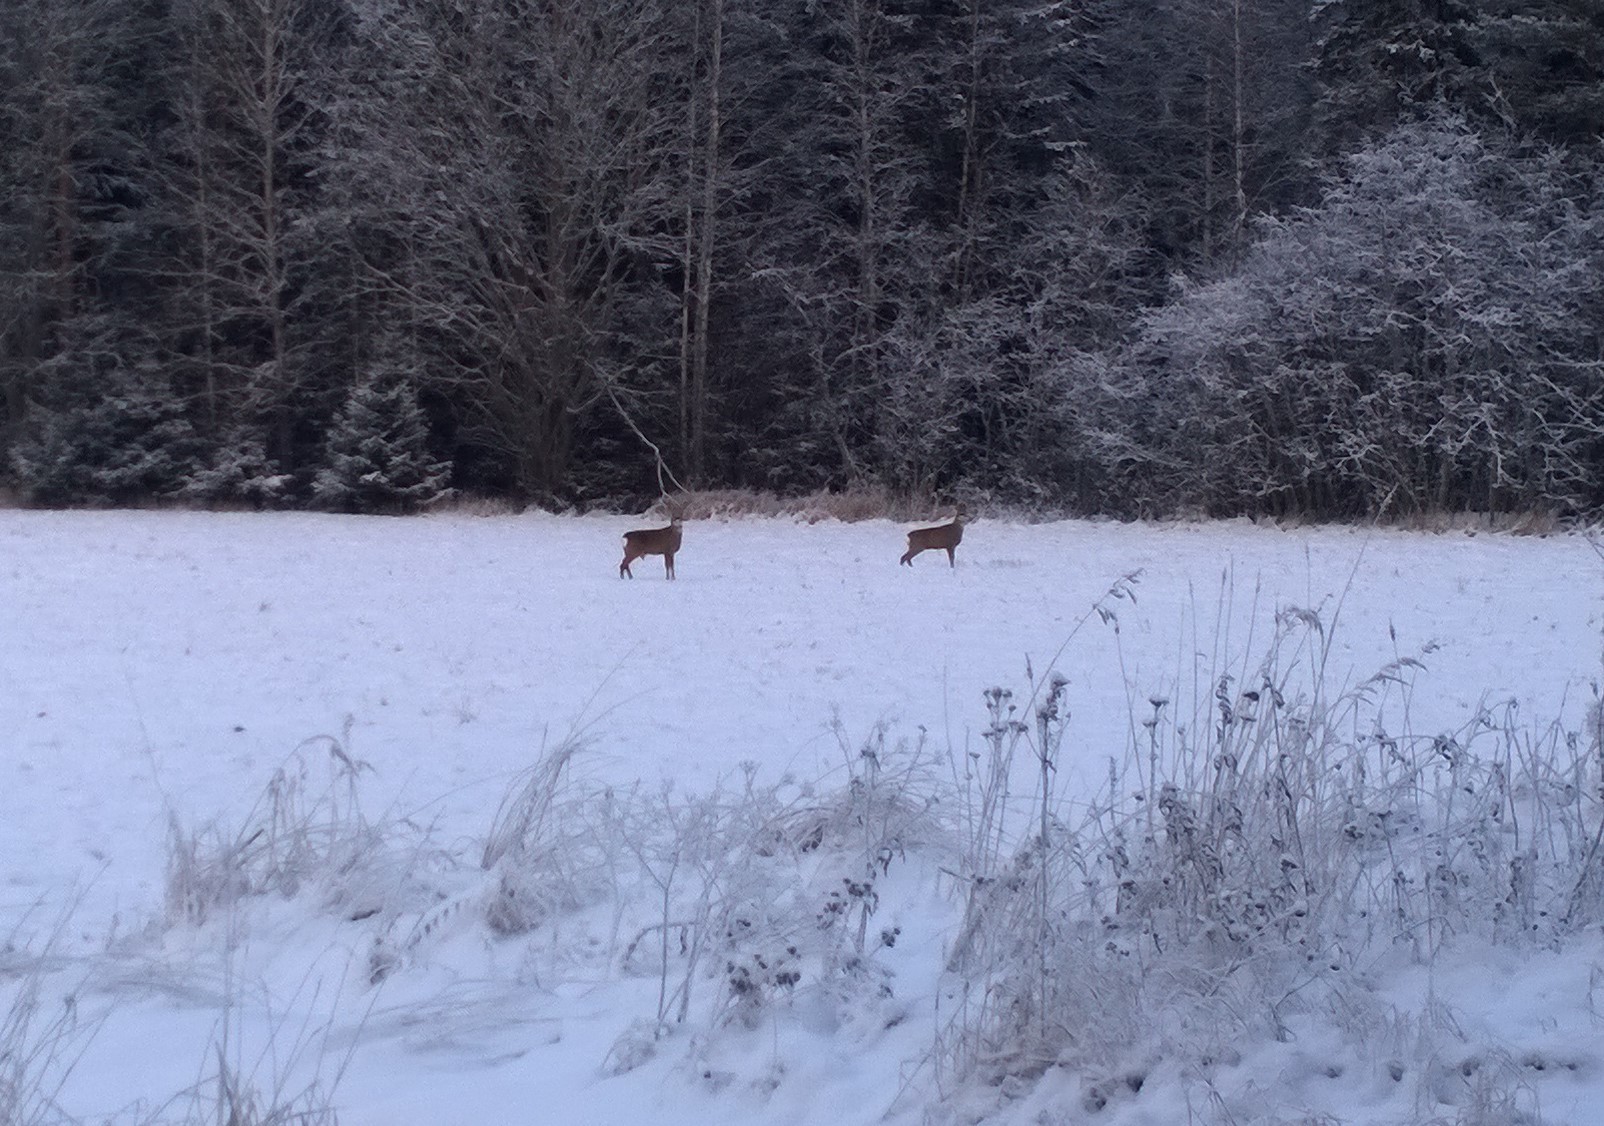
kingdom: Animalia
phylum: Chordata
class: Mammalia
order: Artiodactyla
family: Cervidae
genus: Capreolus
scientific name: Capreolus capreolus
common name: Western roe deer
